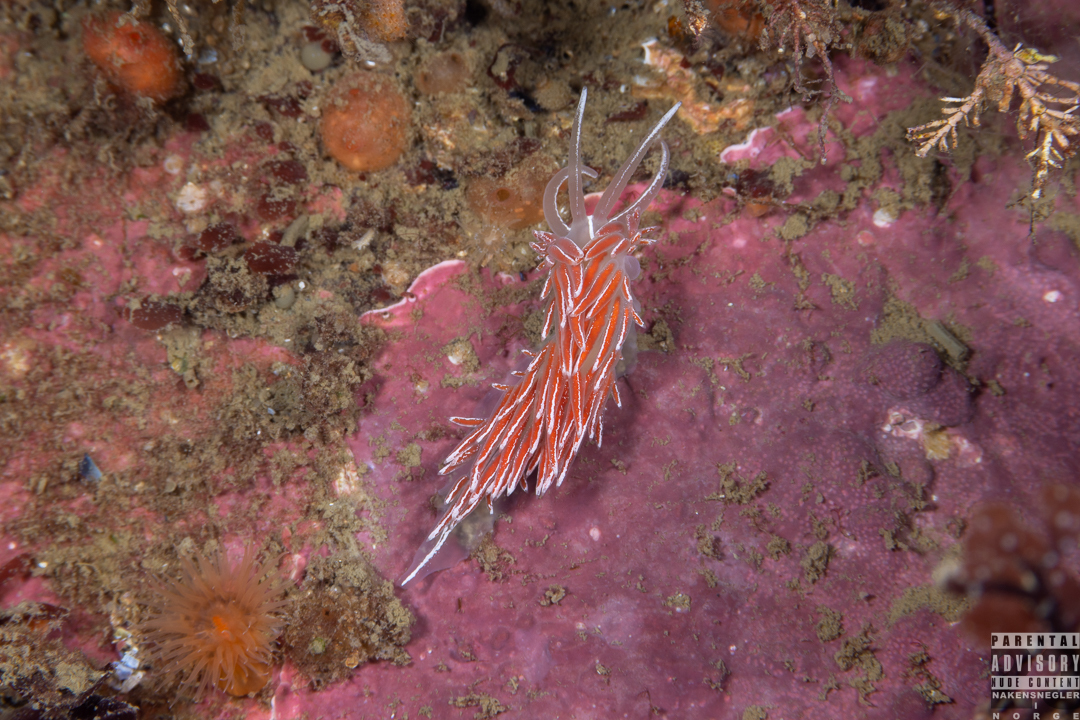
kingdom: Animalia
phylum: Mollusca
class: Gastropoda
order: Nudibranchia
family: Coryphellidae
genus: Coryphella
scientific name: Coryphella lineata
